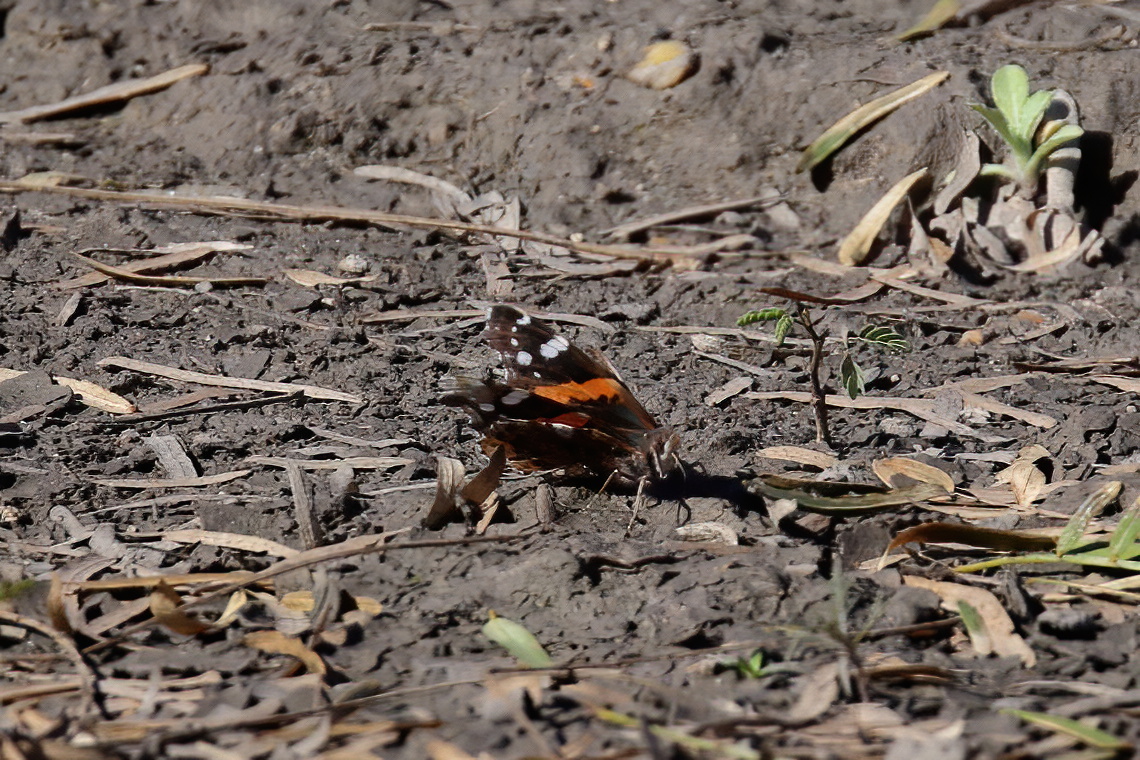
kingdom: Animalia
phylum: Arthropoda
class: Insecta
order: Lepidoptera
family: Nymphalidae
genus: Vanessa
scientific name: Vanessa atalanta
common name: Red admiral
